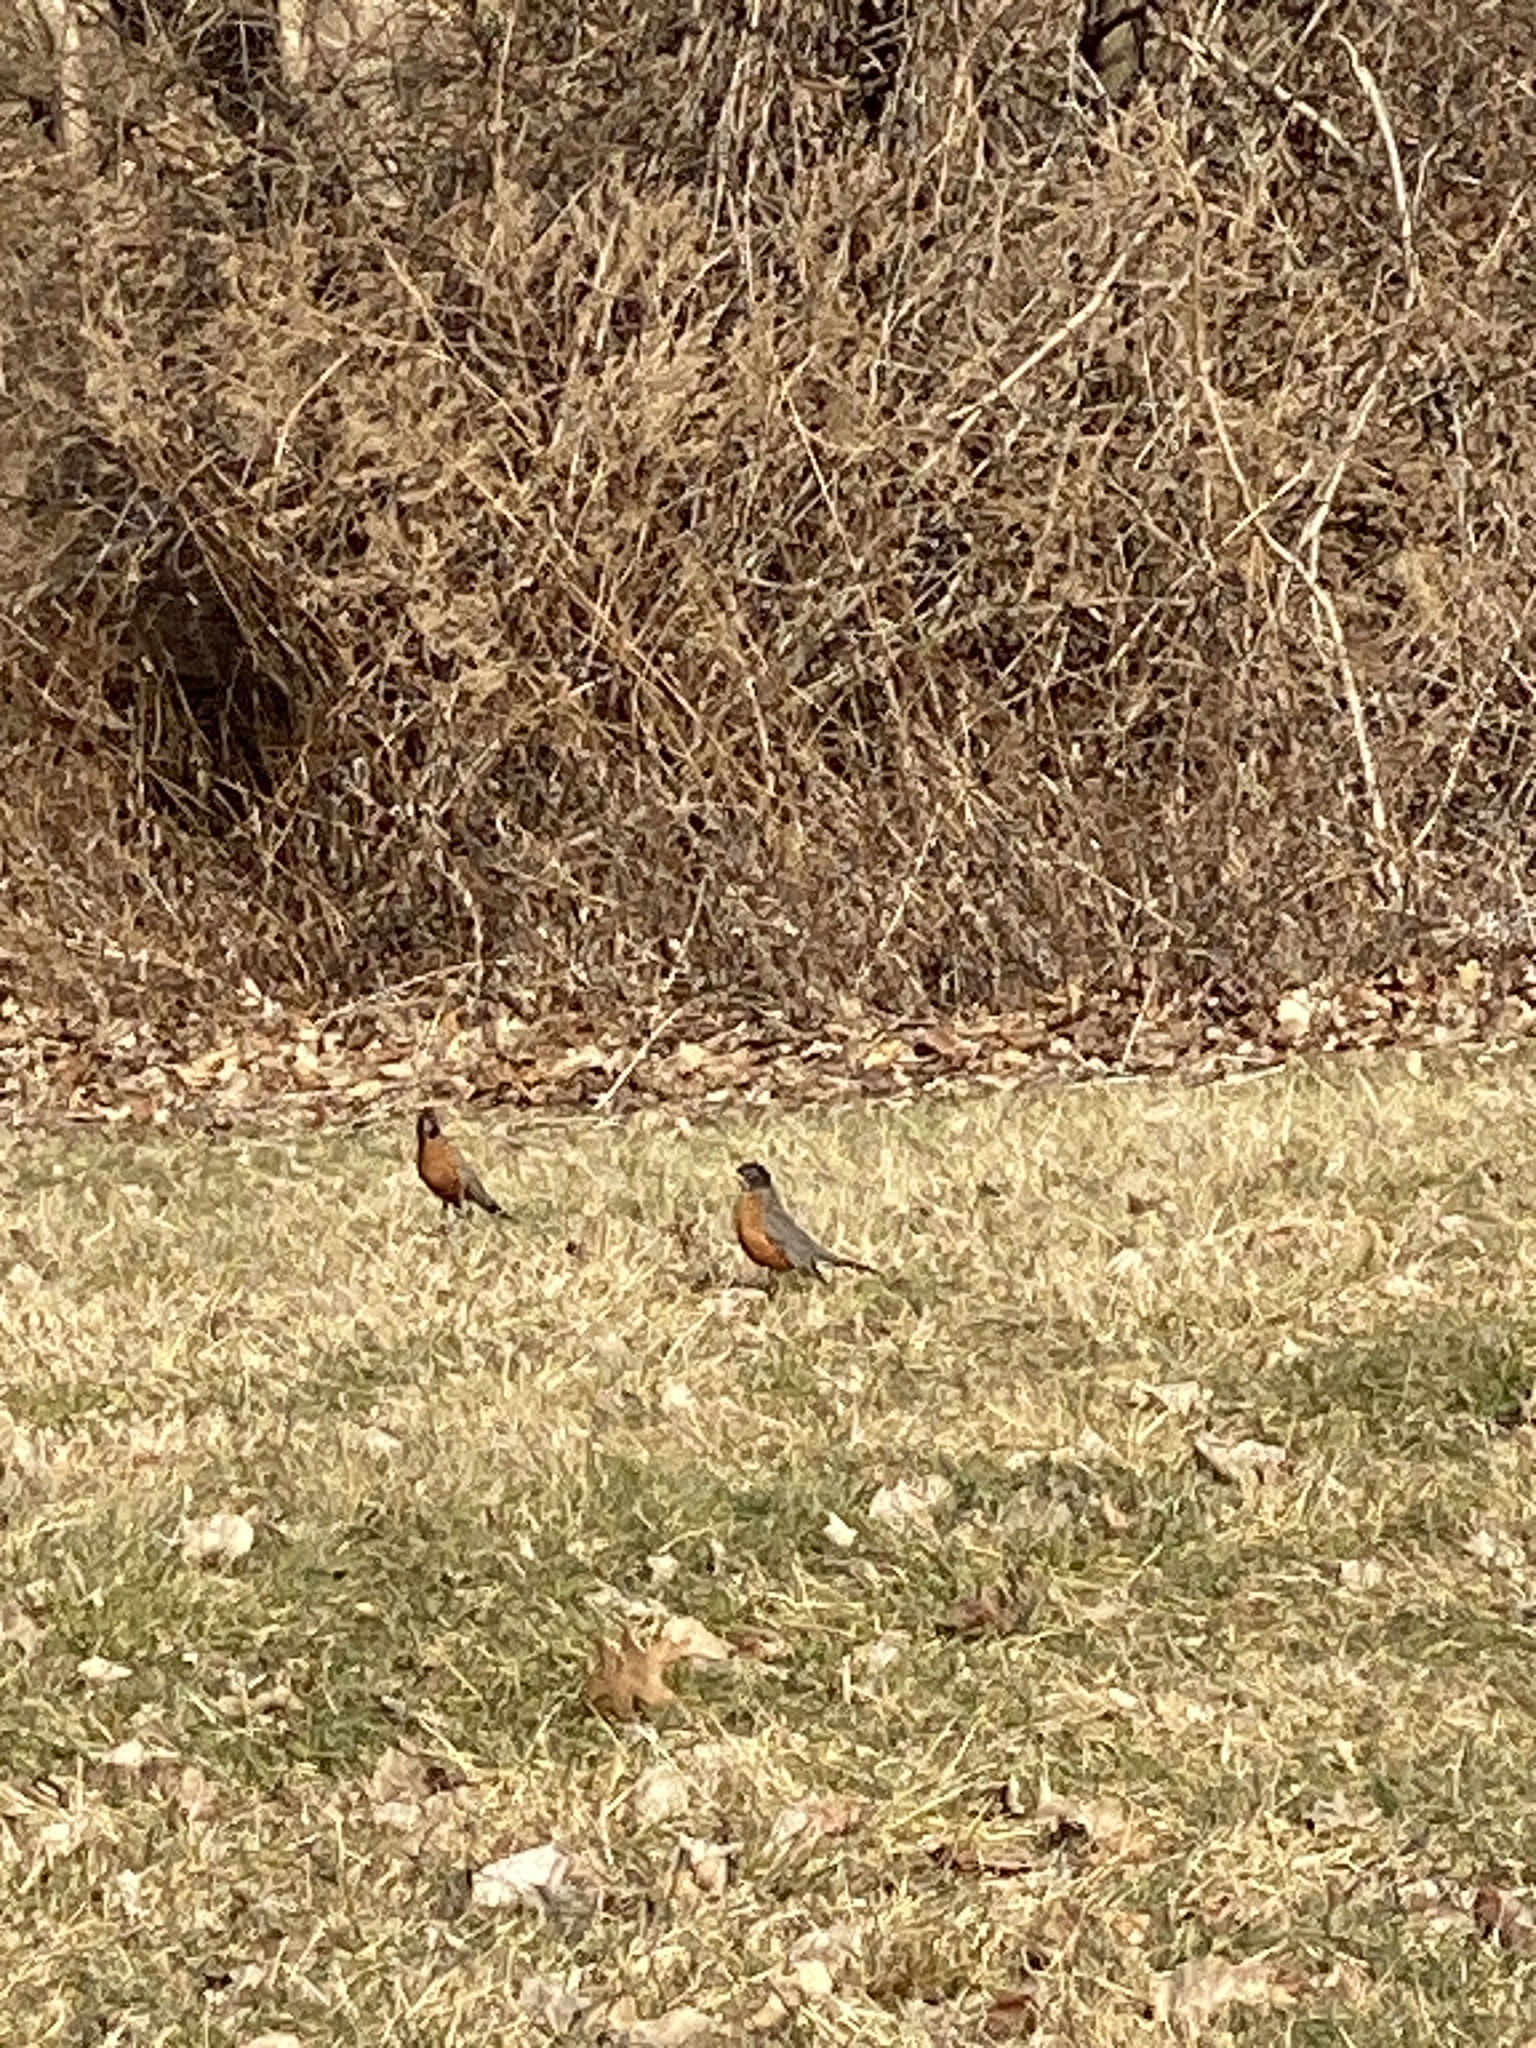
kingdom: Animalia
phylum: Chordata
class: Aves
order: Passeriformes
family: Turdidae
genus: Turdus
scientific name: Turdus migratorius
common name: American robin
